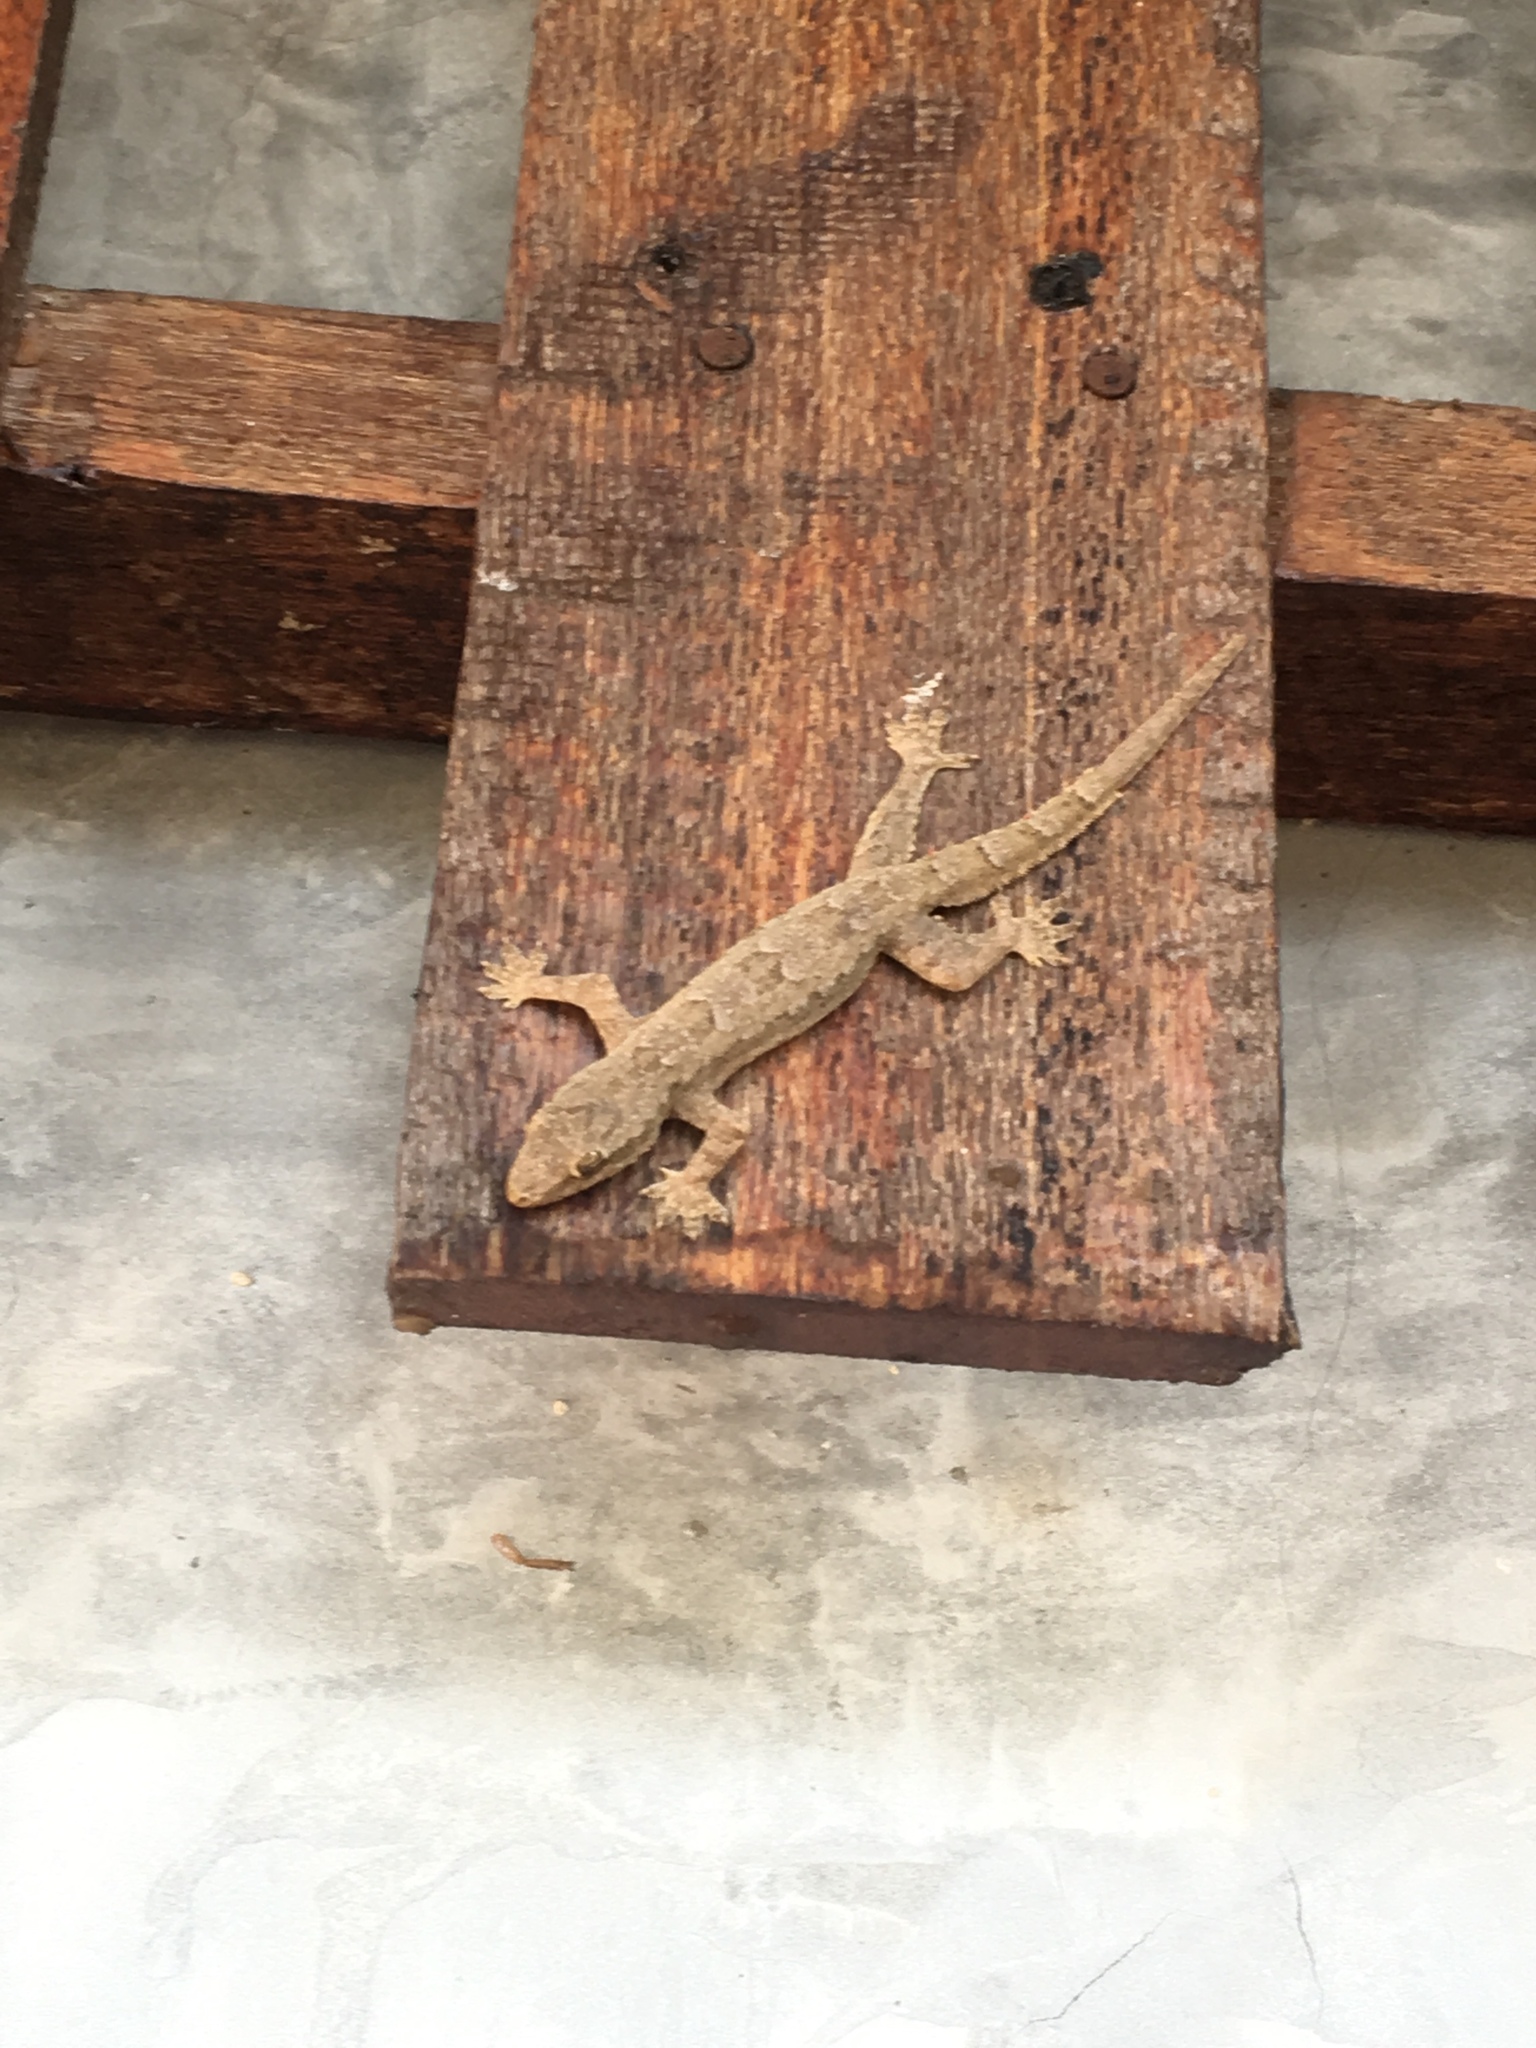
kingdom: Animalia
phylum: Chordata
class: Squamata
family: Gekkonidae
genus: Hemidactylus
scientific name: Hemidactylus platyurus
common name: Flat-tailed house gecko
